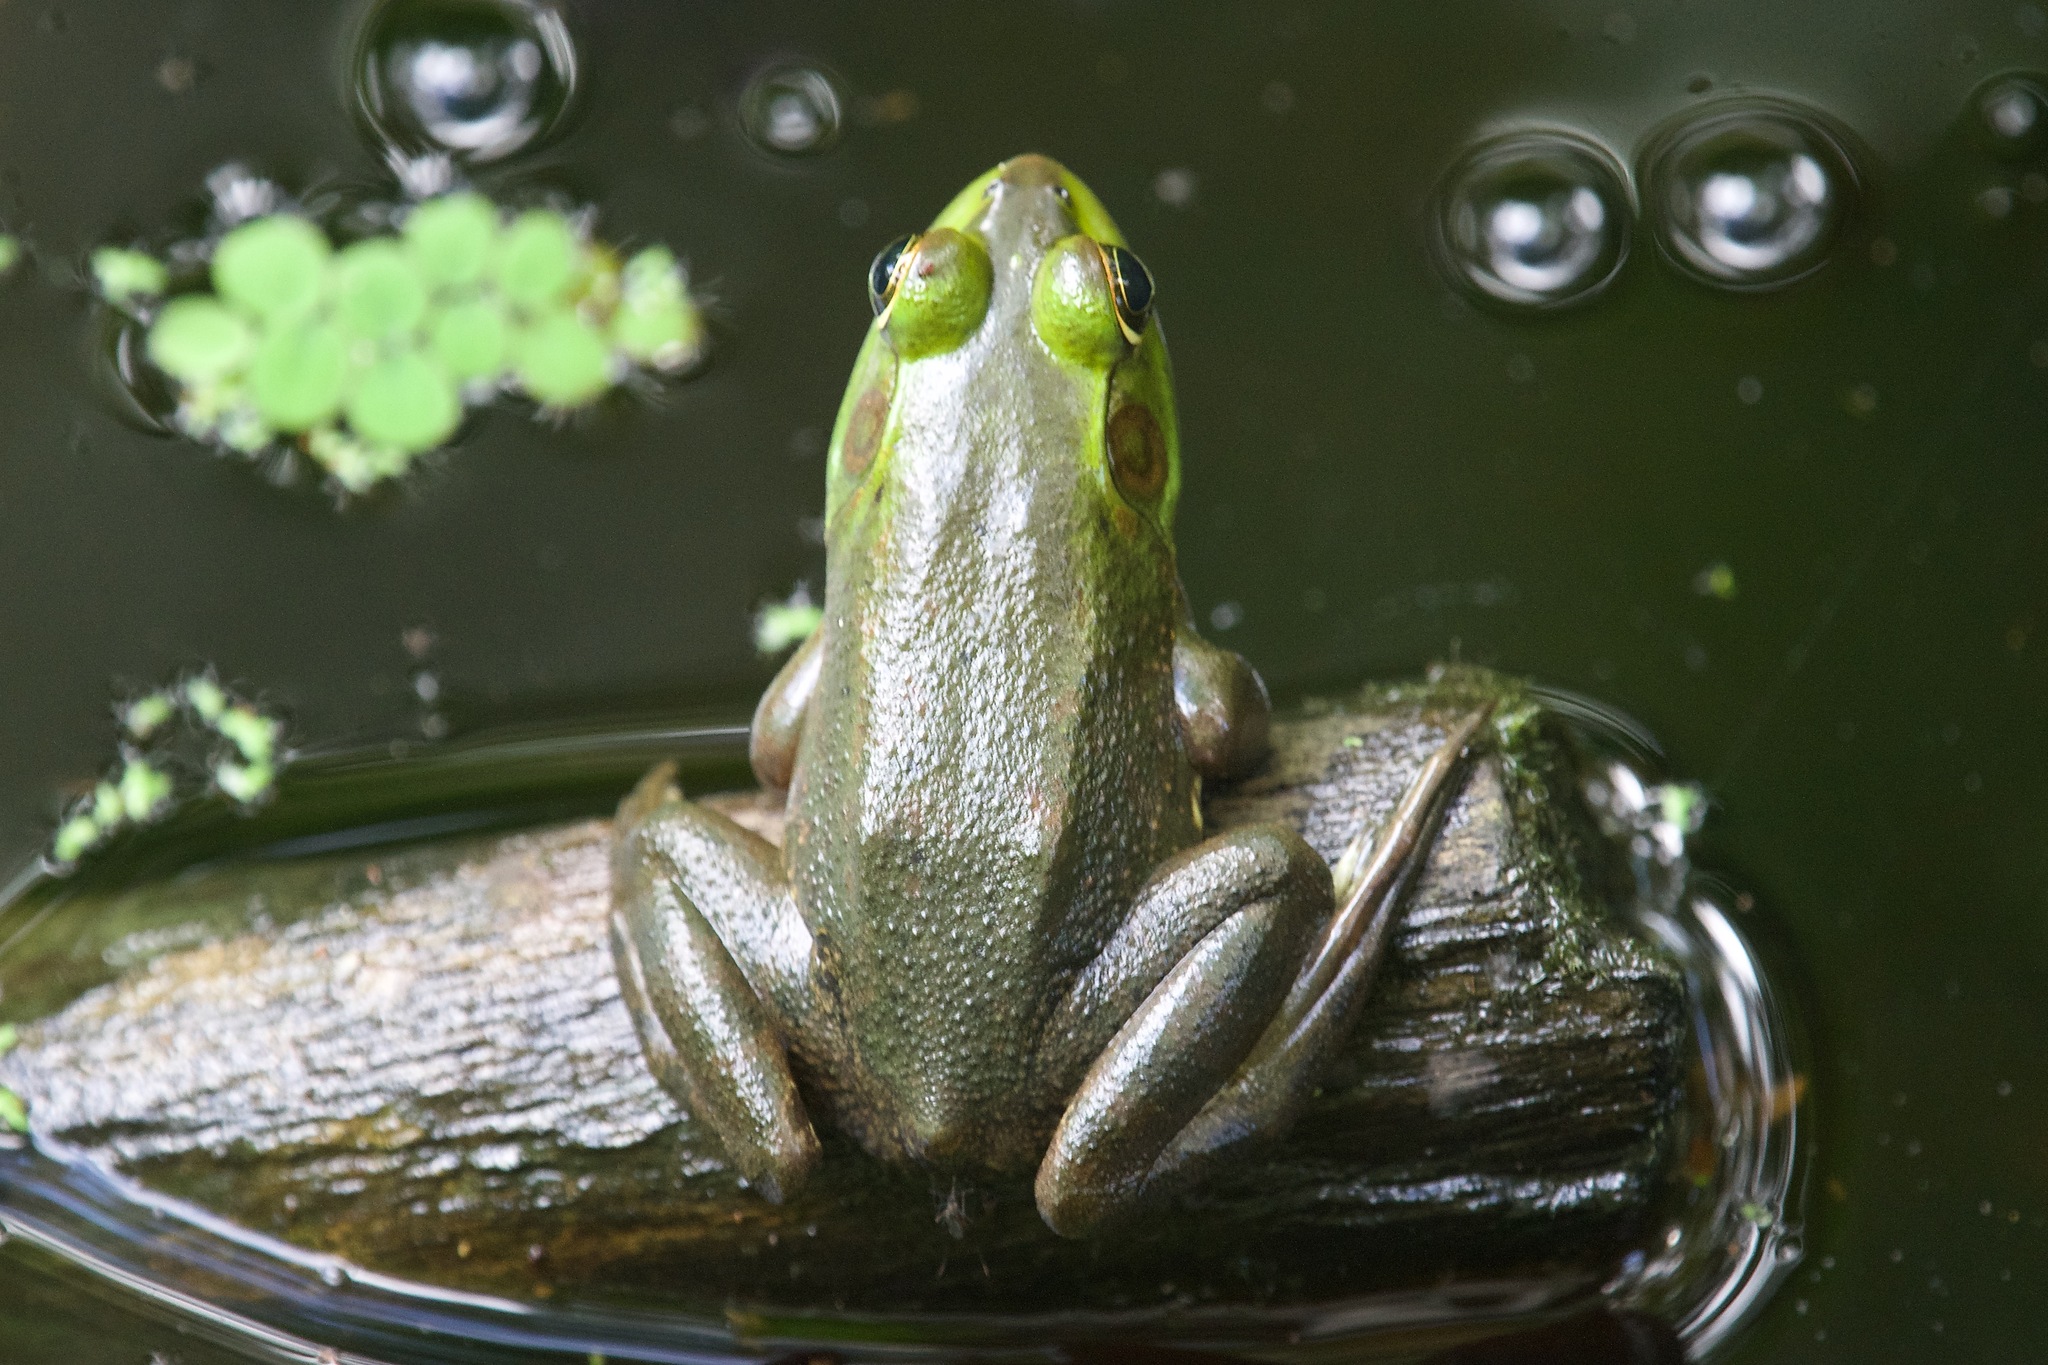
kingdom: Animalia
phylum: Chordata
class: Amphibia
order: Anura
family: Ranidae
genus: Lithobates
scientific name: Lithobates grylio
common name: Pig frog
